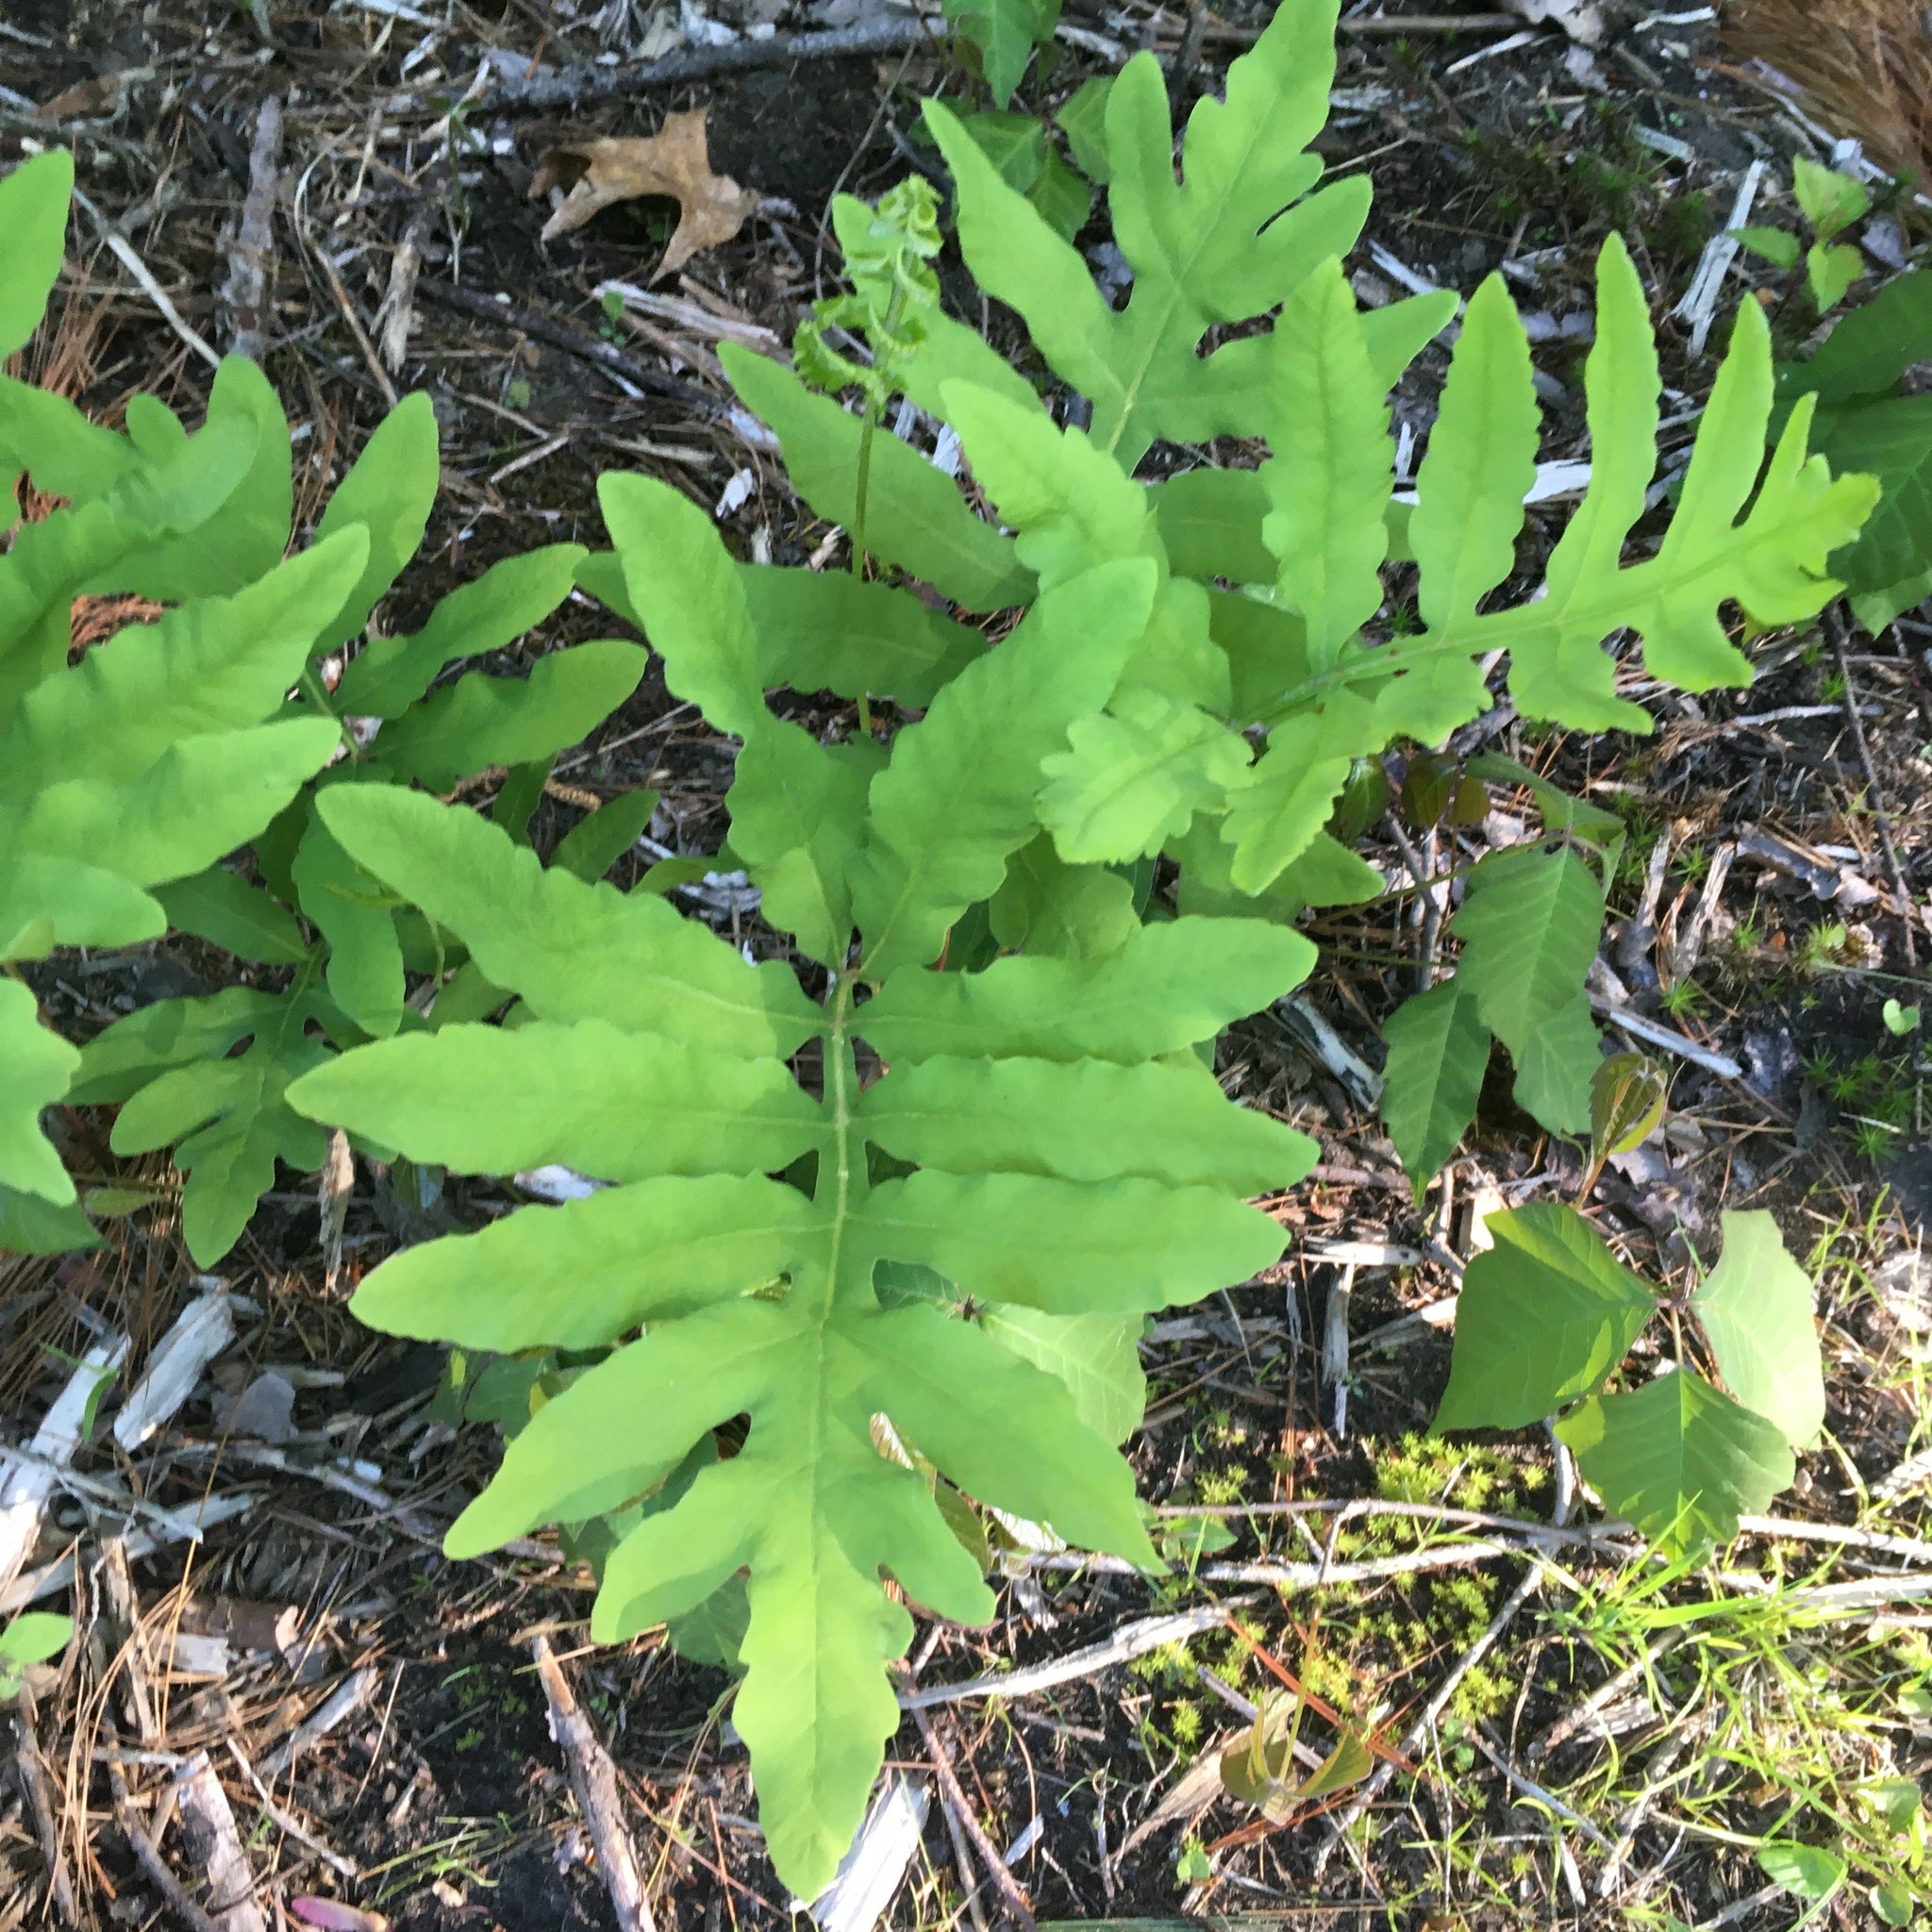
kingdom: Plantae
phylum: Tracheophyta
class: Polypodiopsida
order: Polypodiales
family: Onocleaceae
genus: Onoclea
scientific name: Onoclea sensibilis
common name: Sensitive fern
